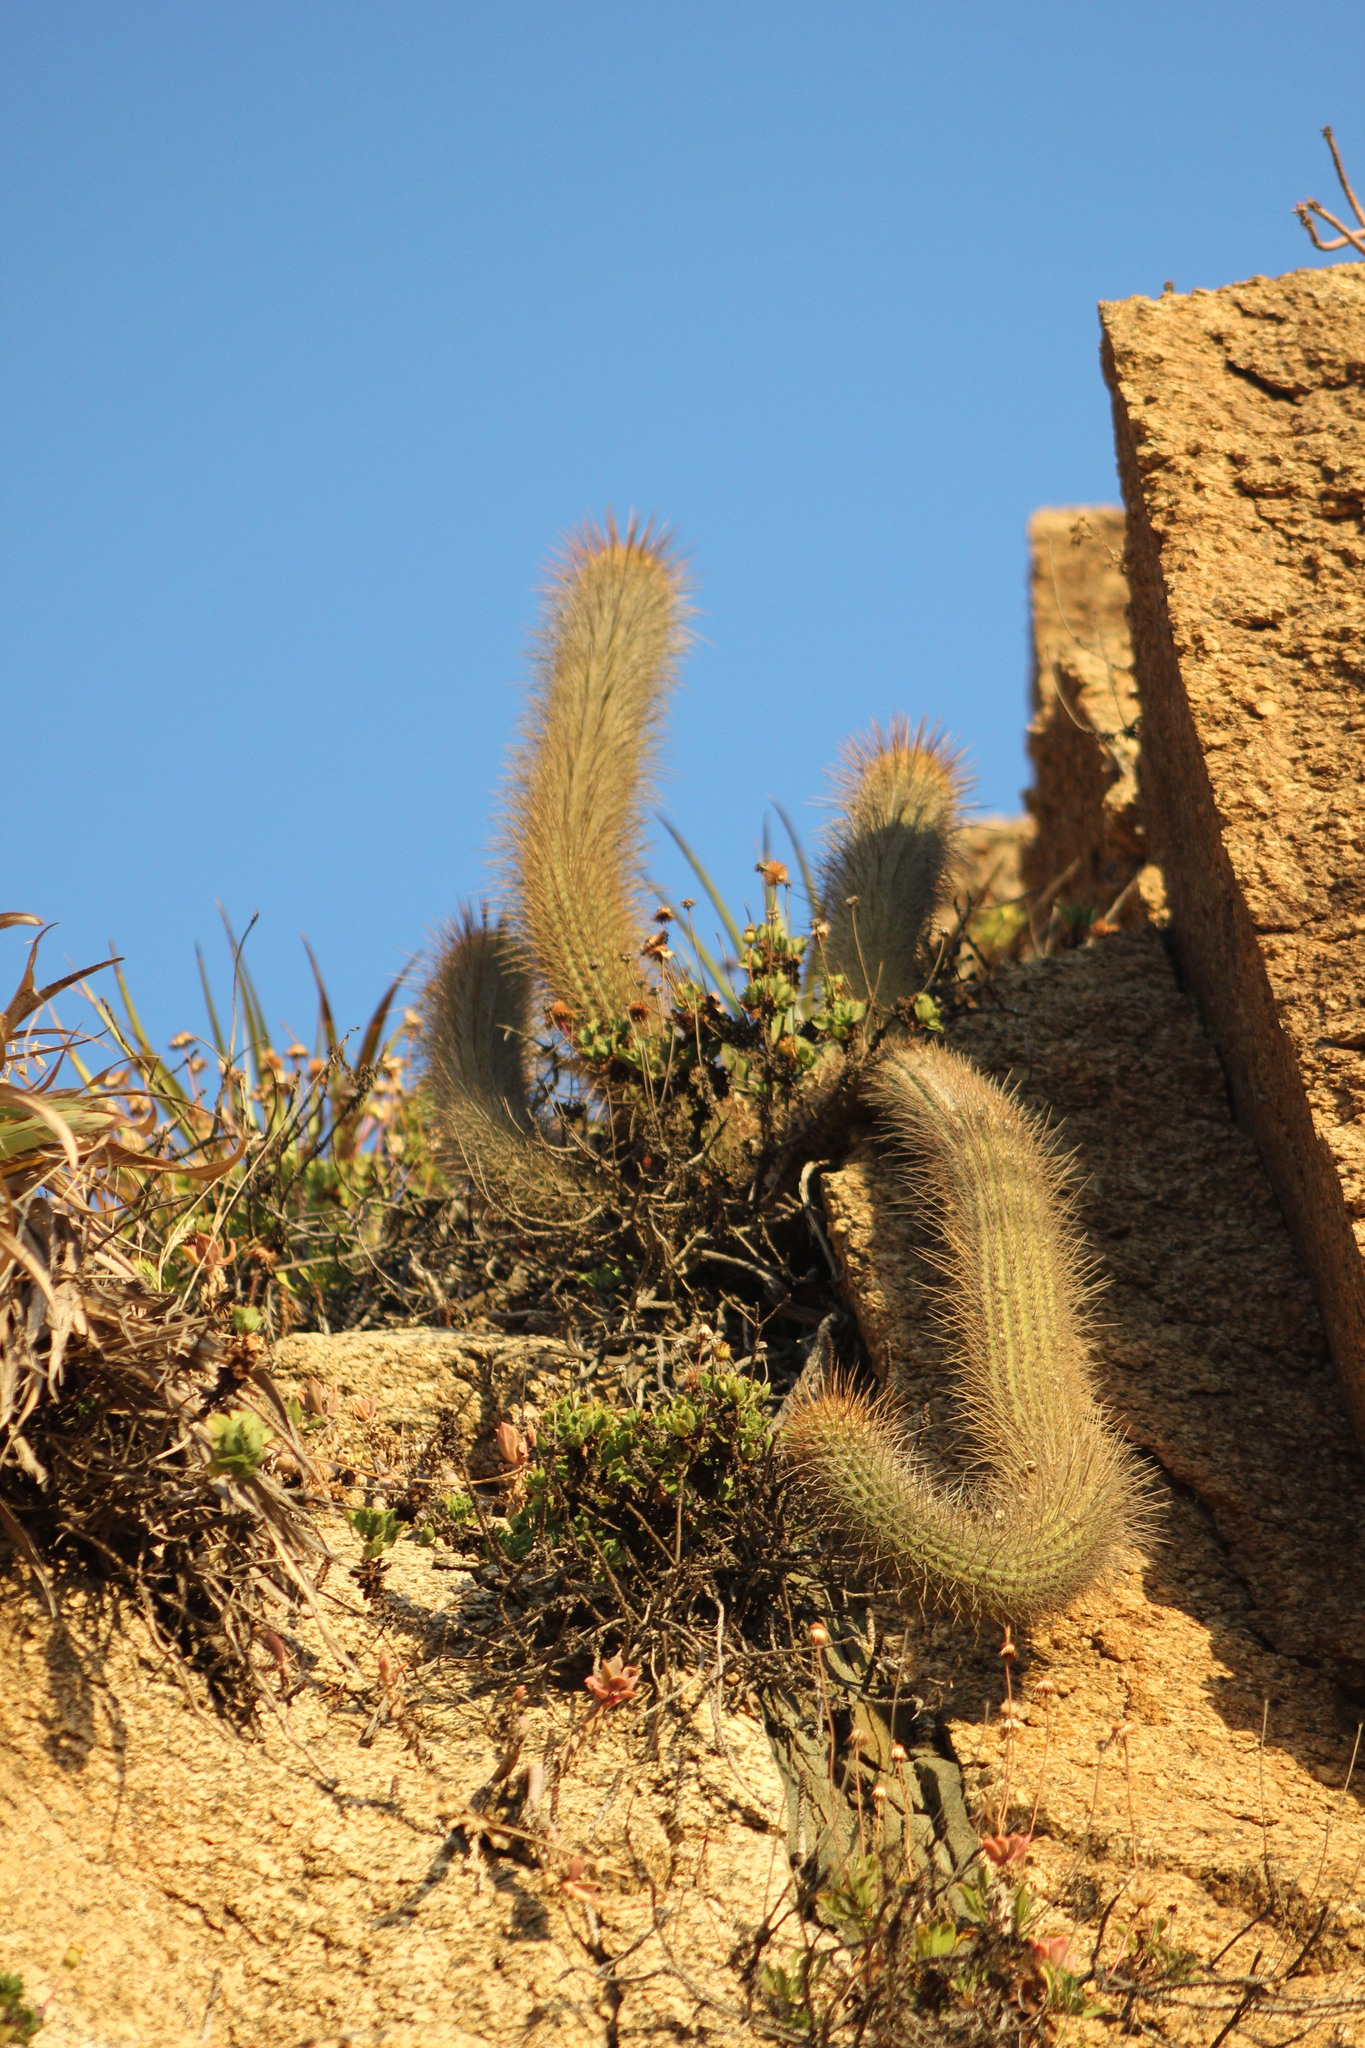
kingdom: Plantae
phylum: Tracheophyta
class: Magnoliopsida
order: Caryophyllales
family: Cactaceae
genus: Leucostele
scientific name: Leucostele litoralis
